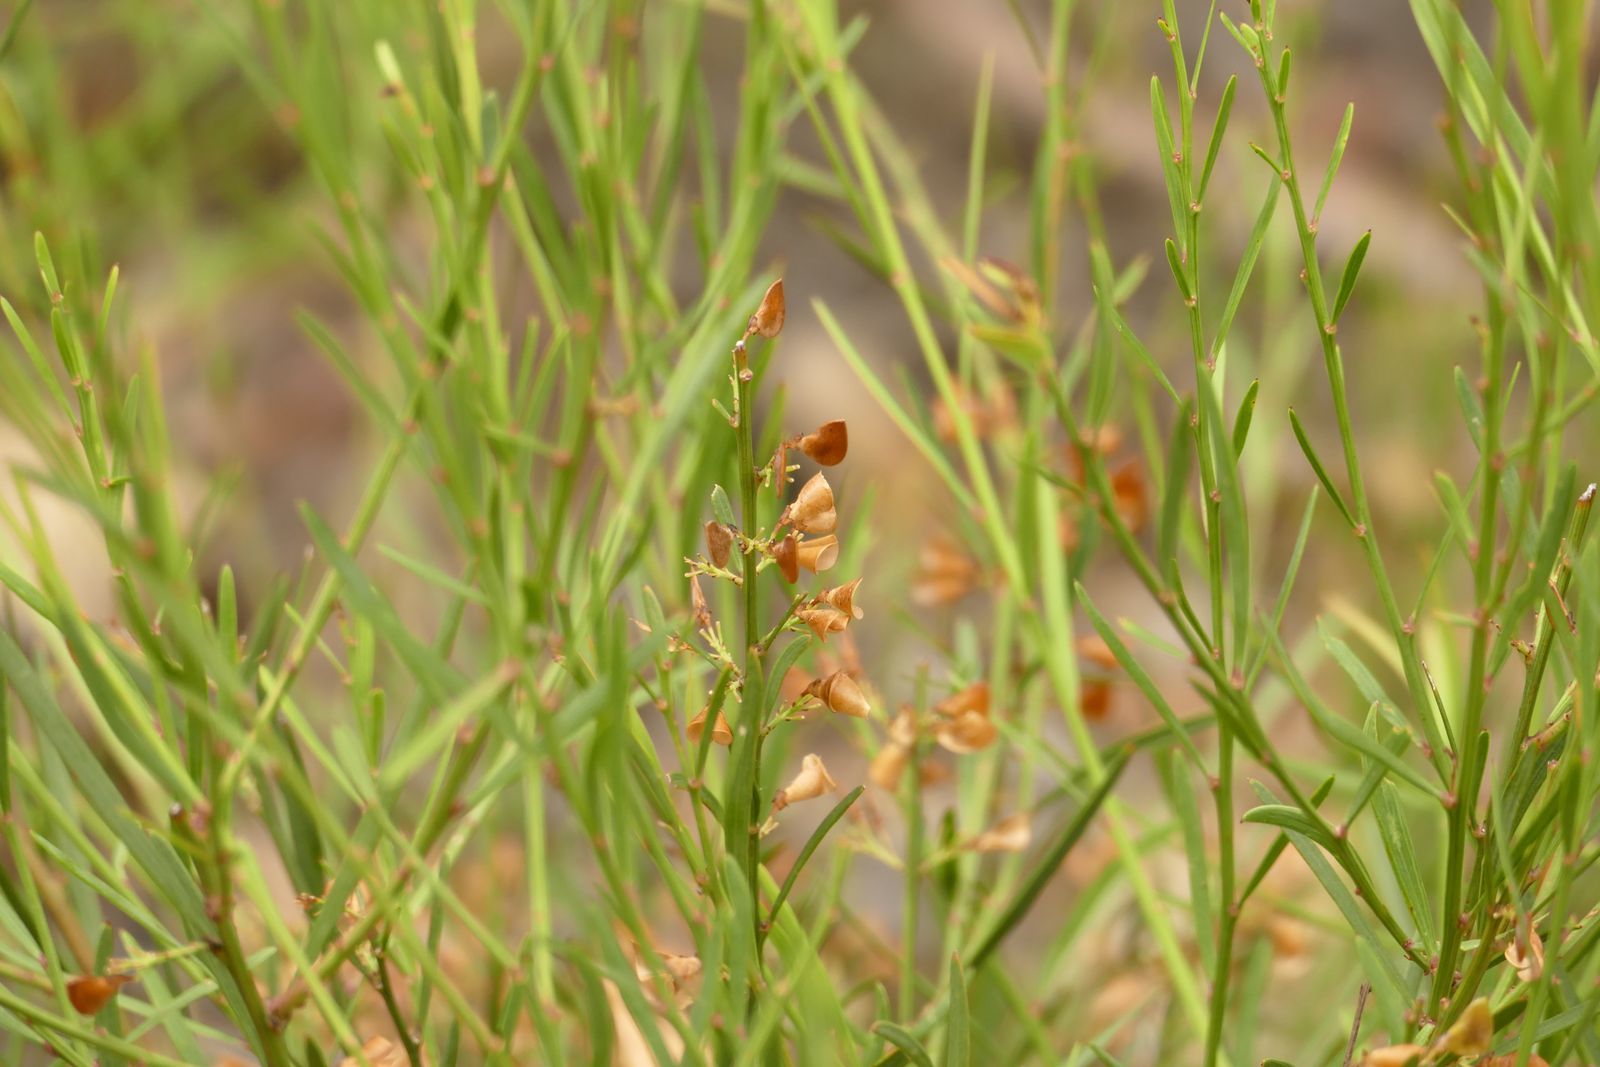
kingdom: Plantae
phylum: Tracheophyta
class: Magnoliopsida
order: Fabales
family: Fabaceae
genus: Daviesia
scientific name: Daviesia leptophylla
